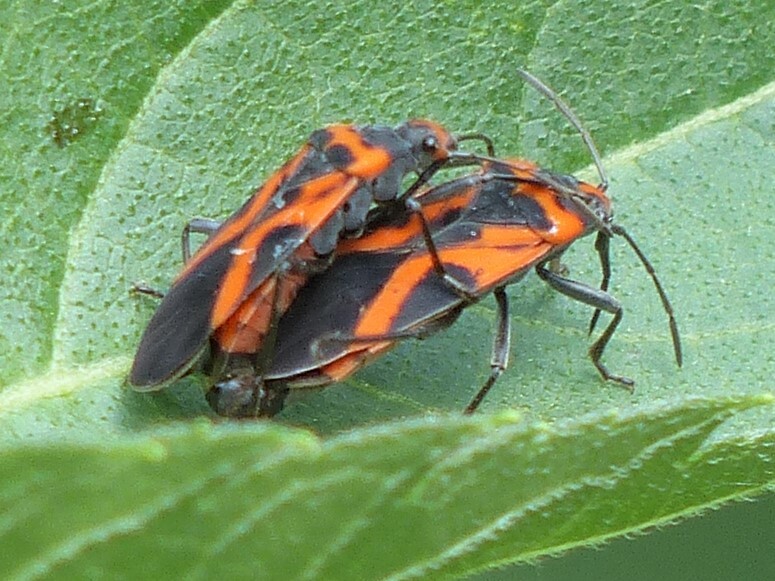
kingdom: Animalia
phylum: Arthropoda
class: Insecta
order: Hemiptera
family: Lygaeidae
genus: Lygaeus
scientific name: Lygaeus turcicus
